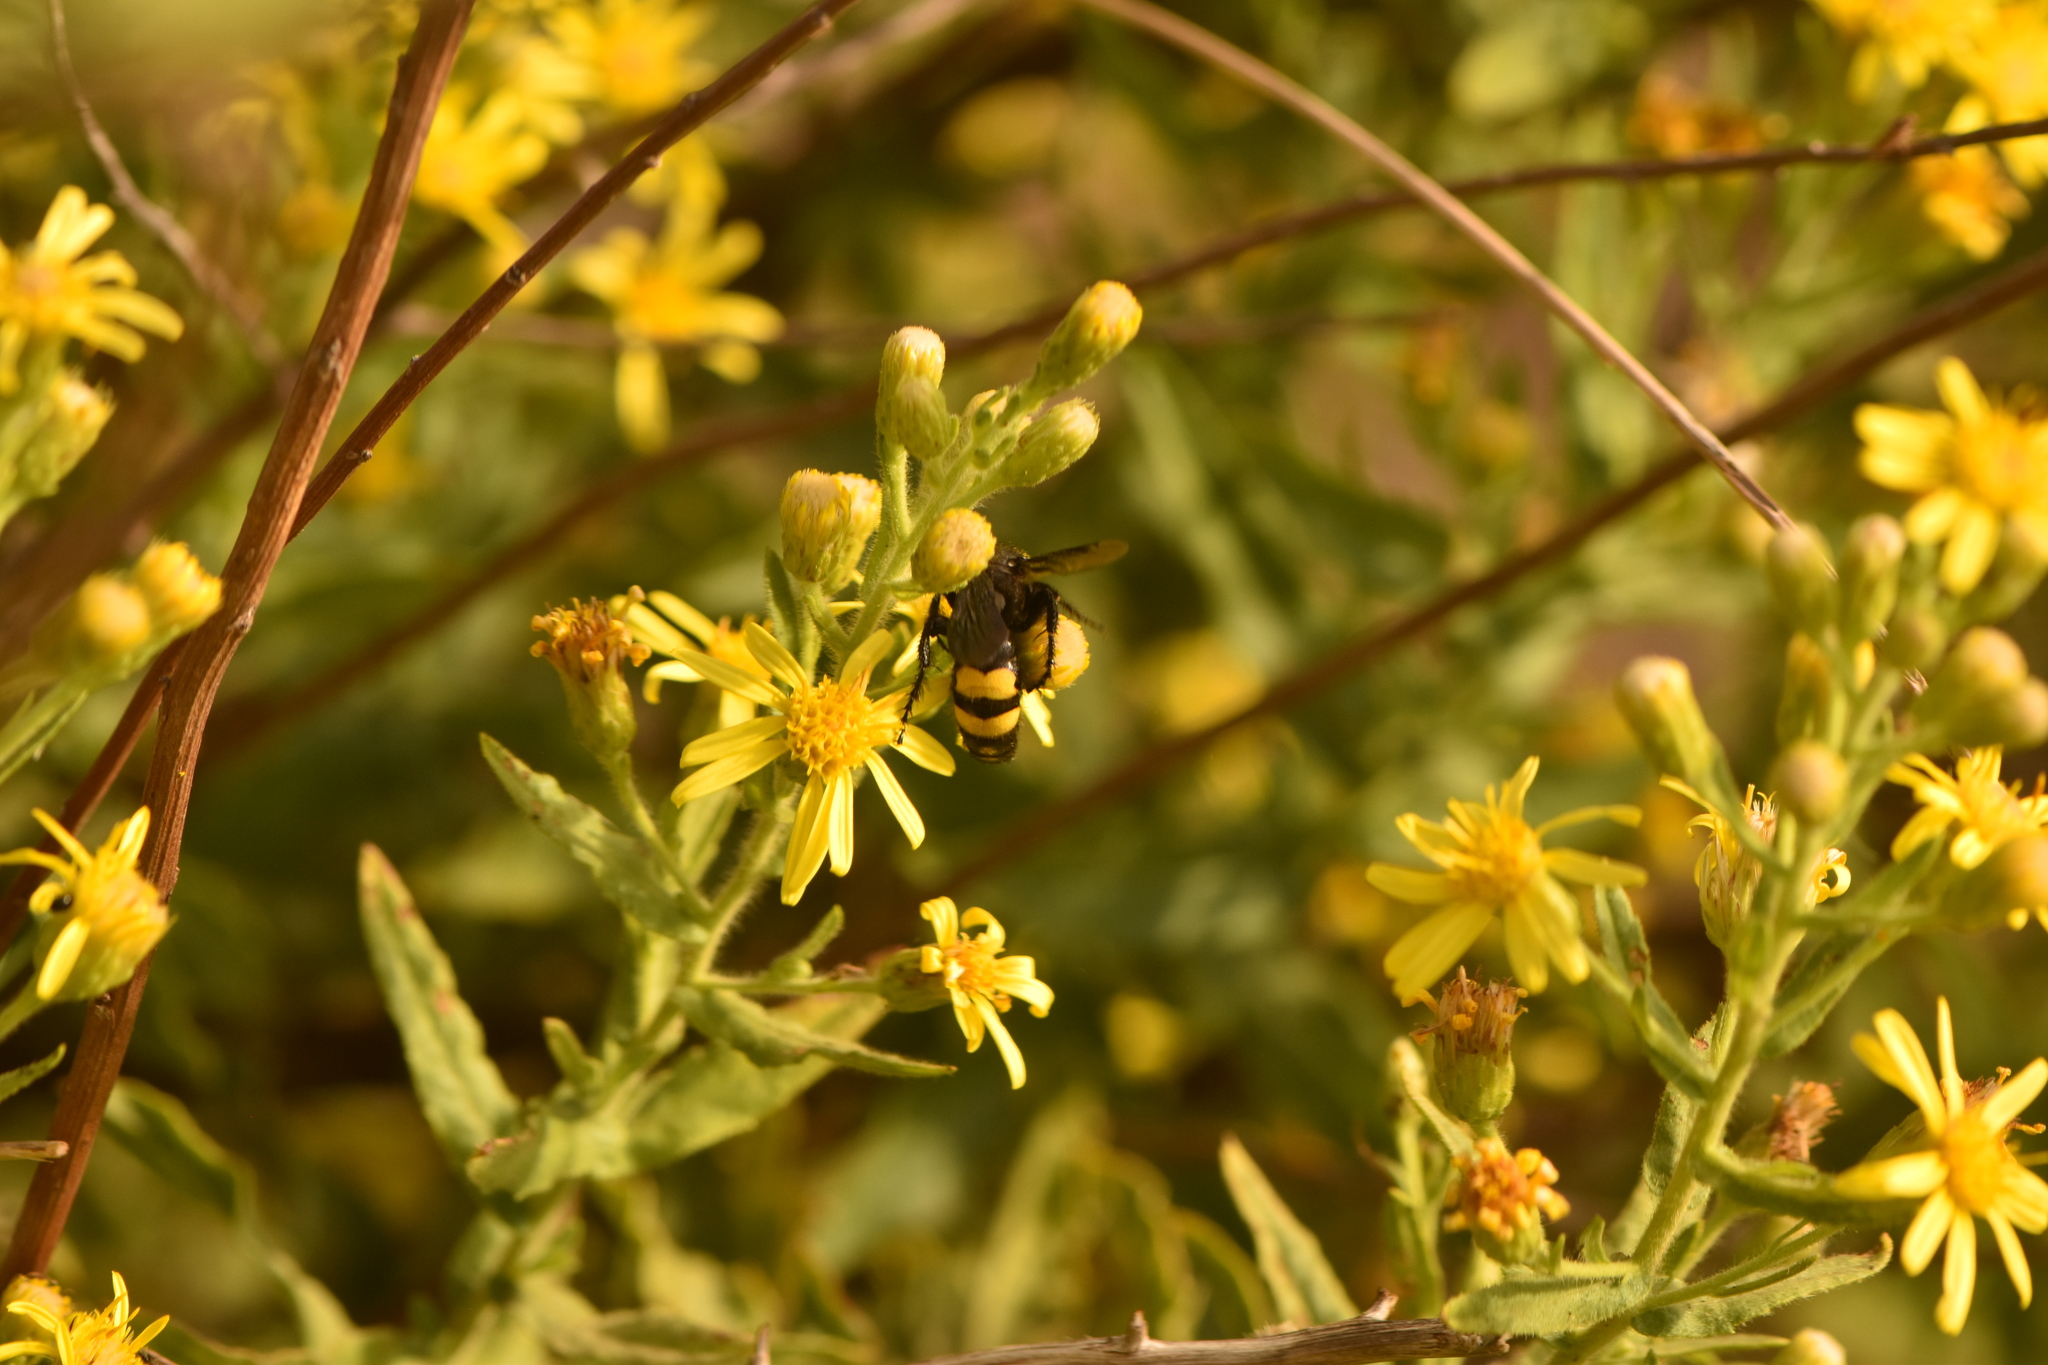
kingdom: Animalia
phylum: Arthropoda
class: Insecta
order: Hymenoptera
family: Scoliidae
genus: Scolia
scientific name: Scolia hirta
